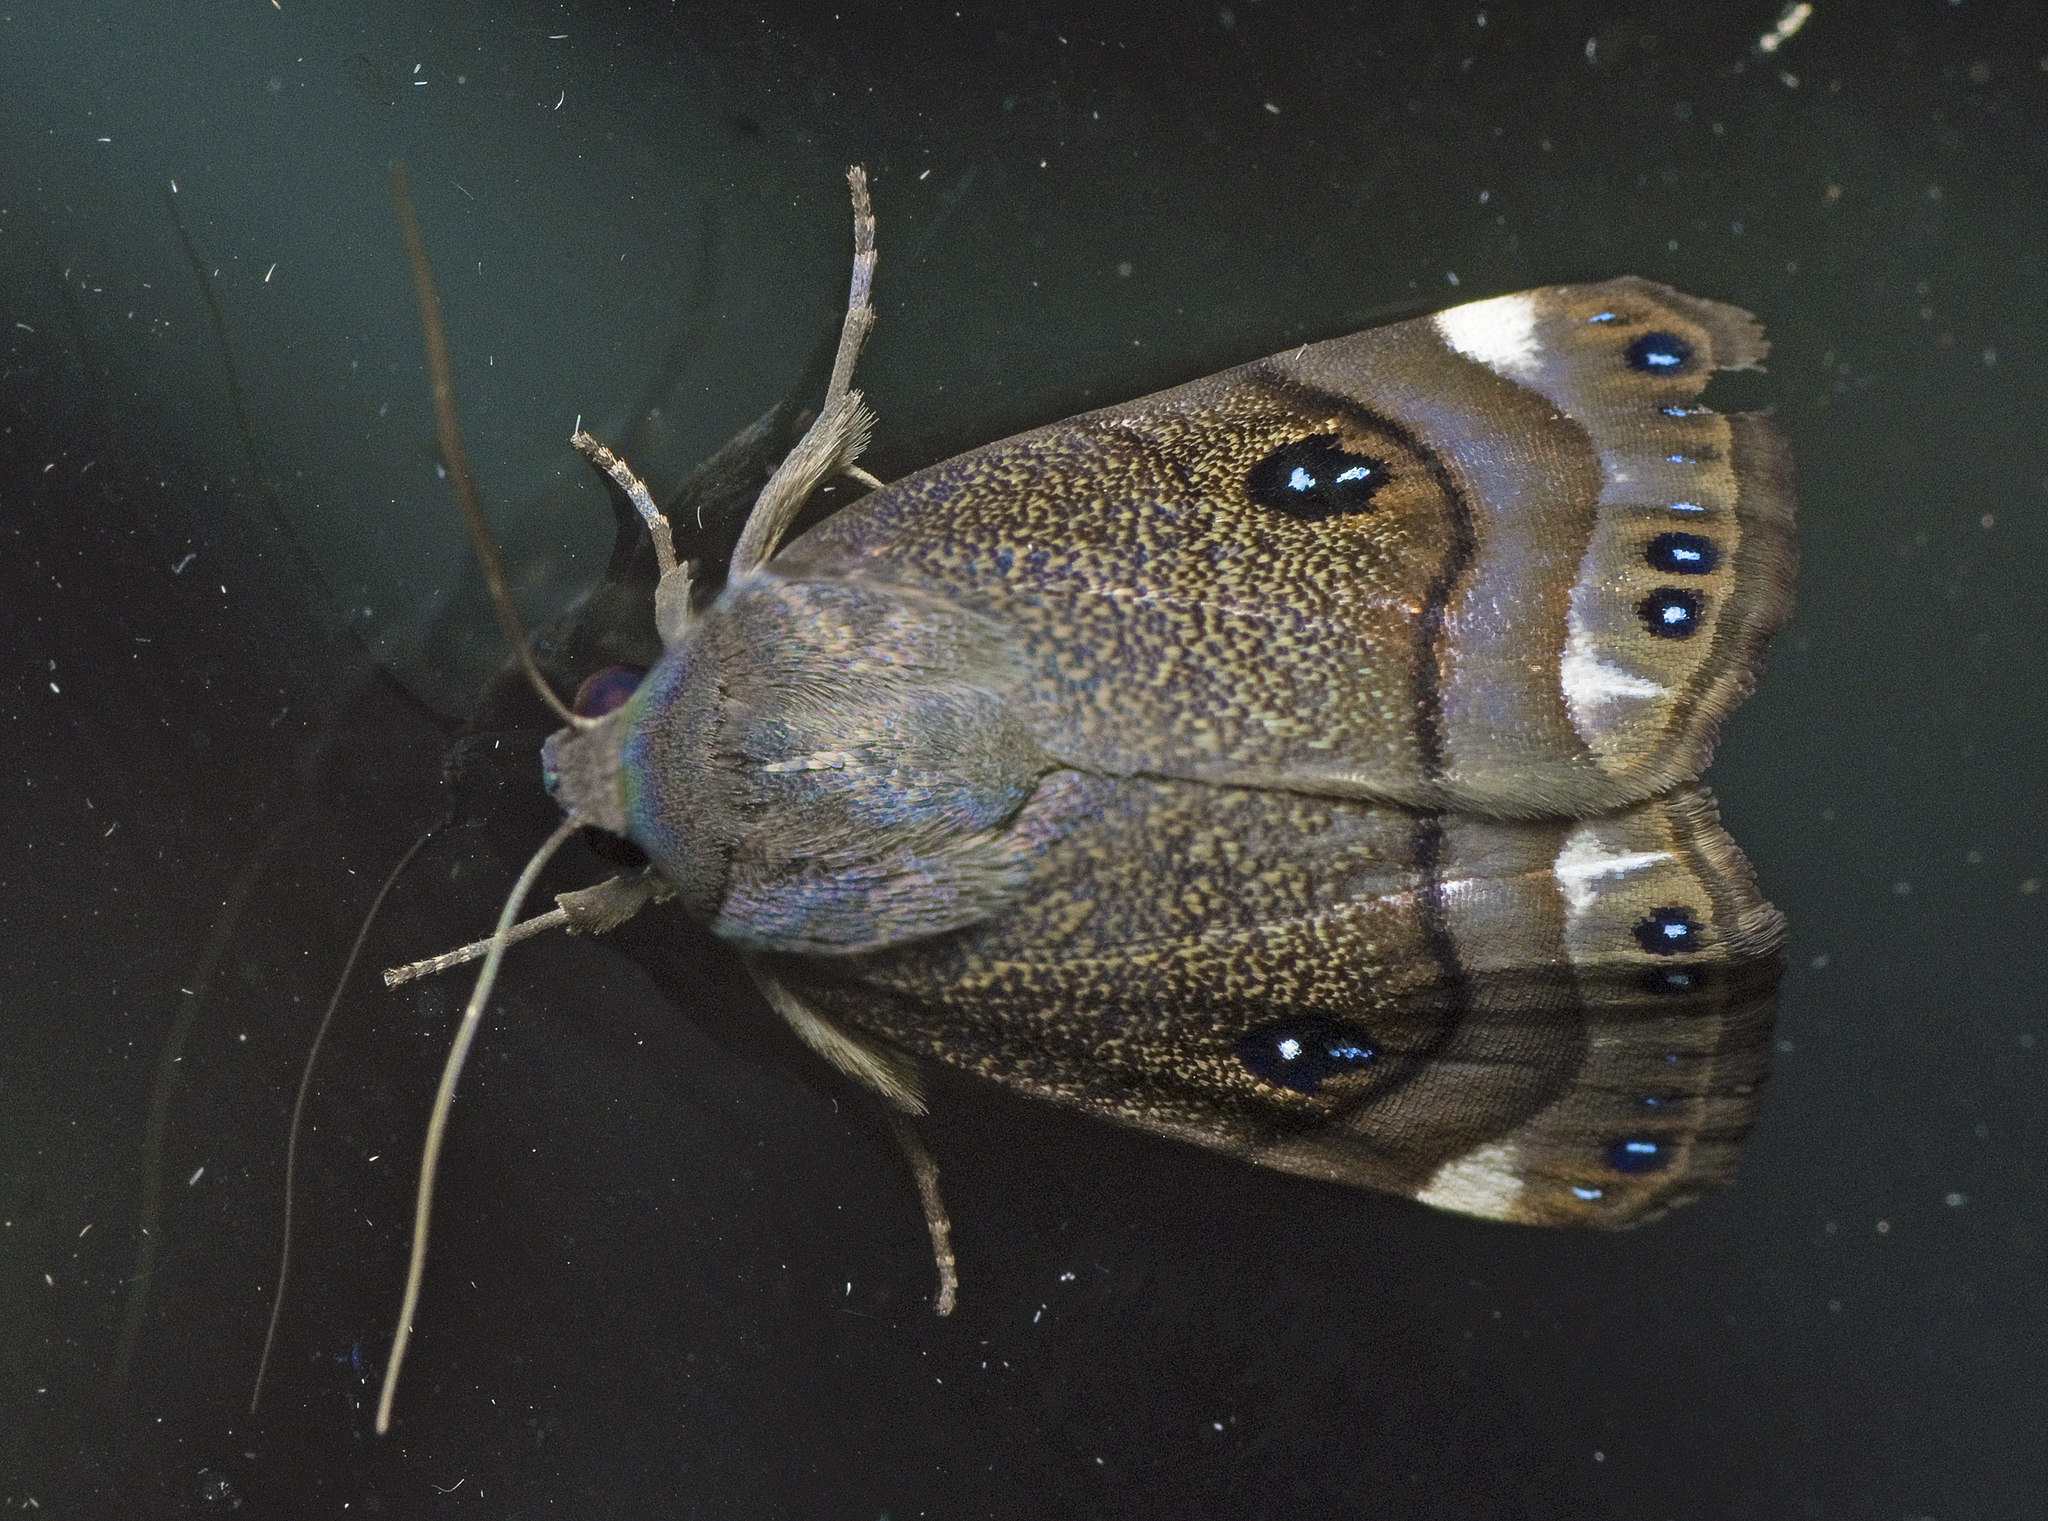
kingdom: Animalia
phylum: Arthropoda
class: Insecta
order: Lepidoptera
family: Nolidae
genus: Armactica
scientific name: Armactica columbina
